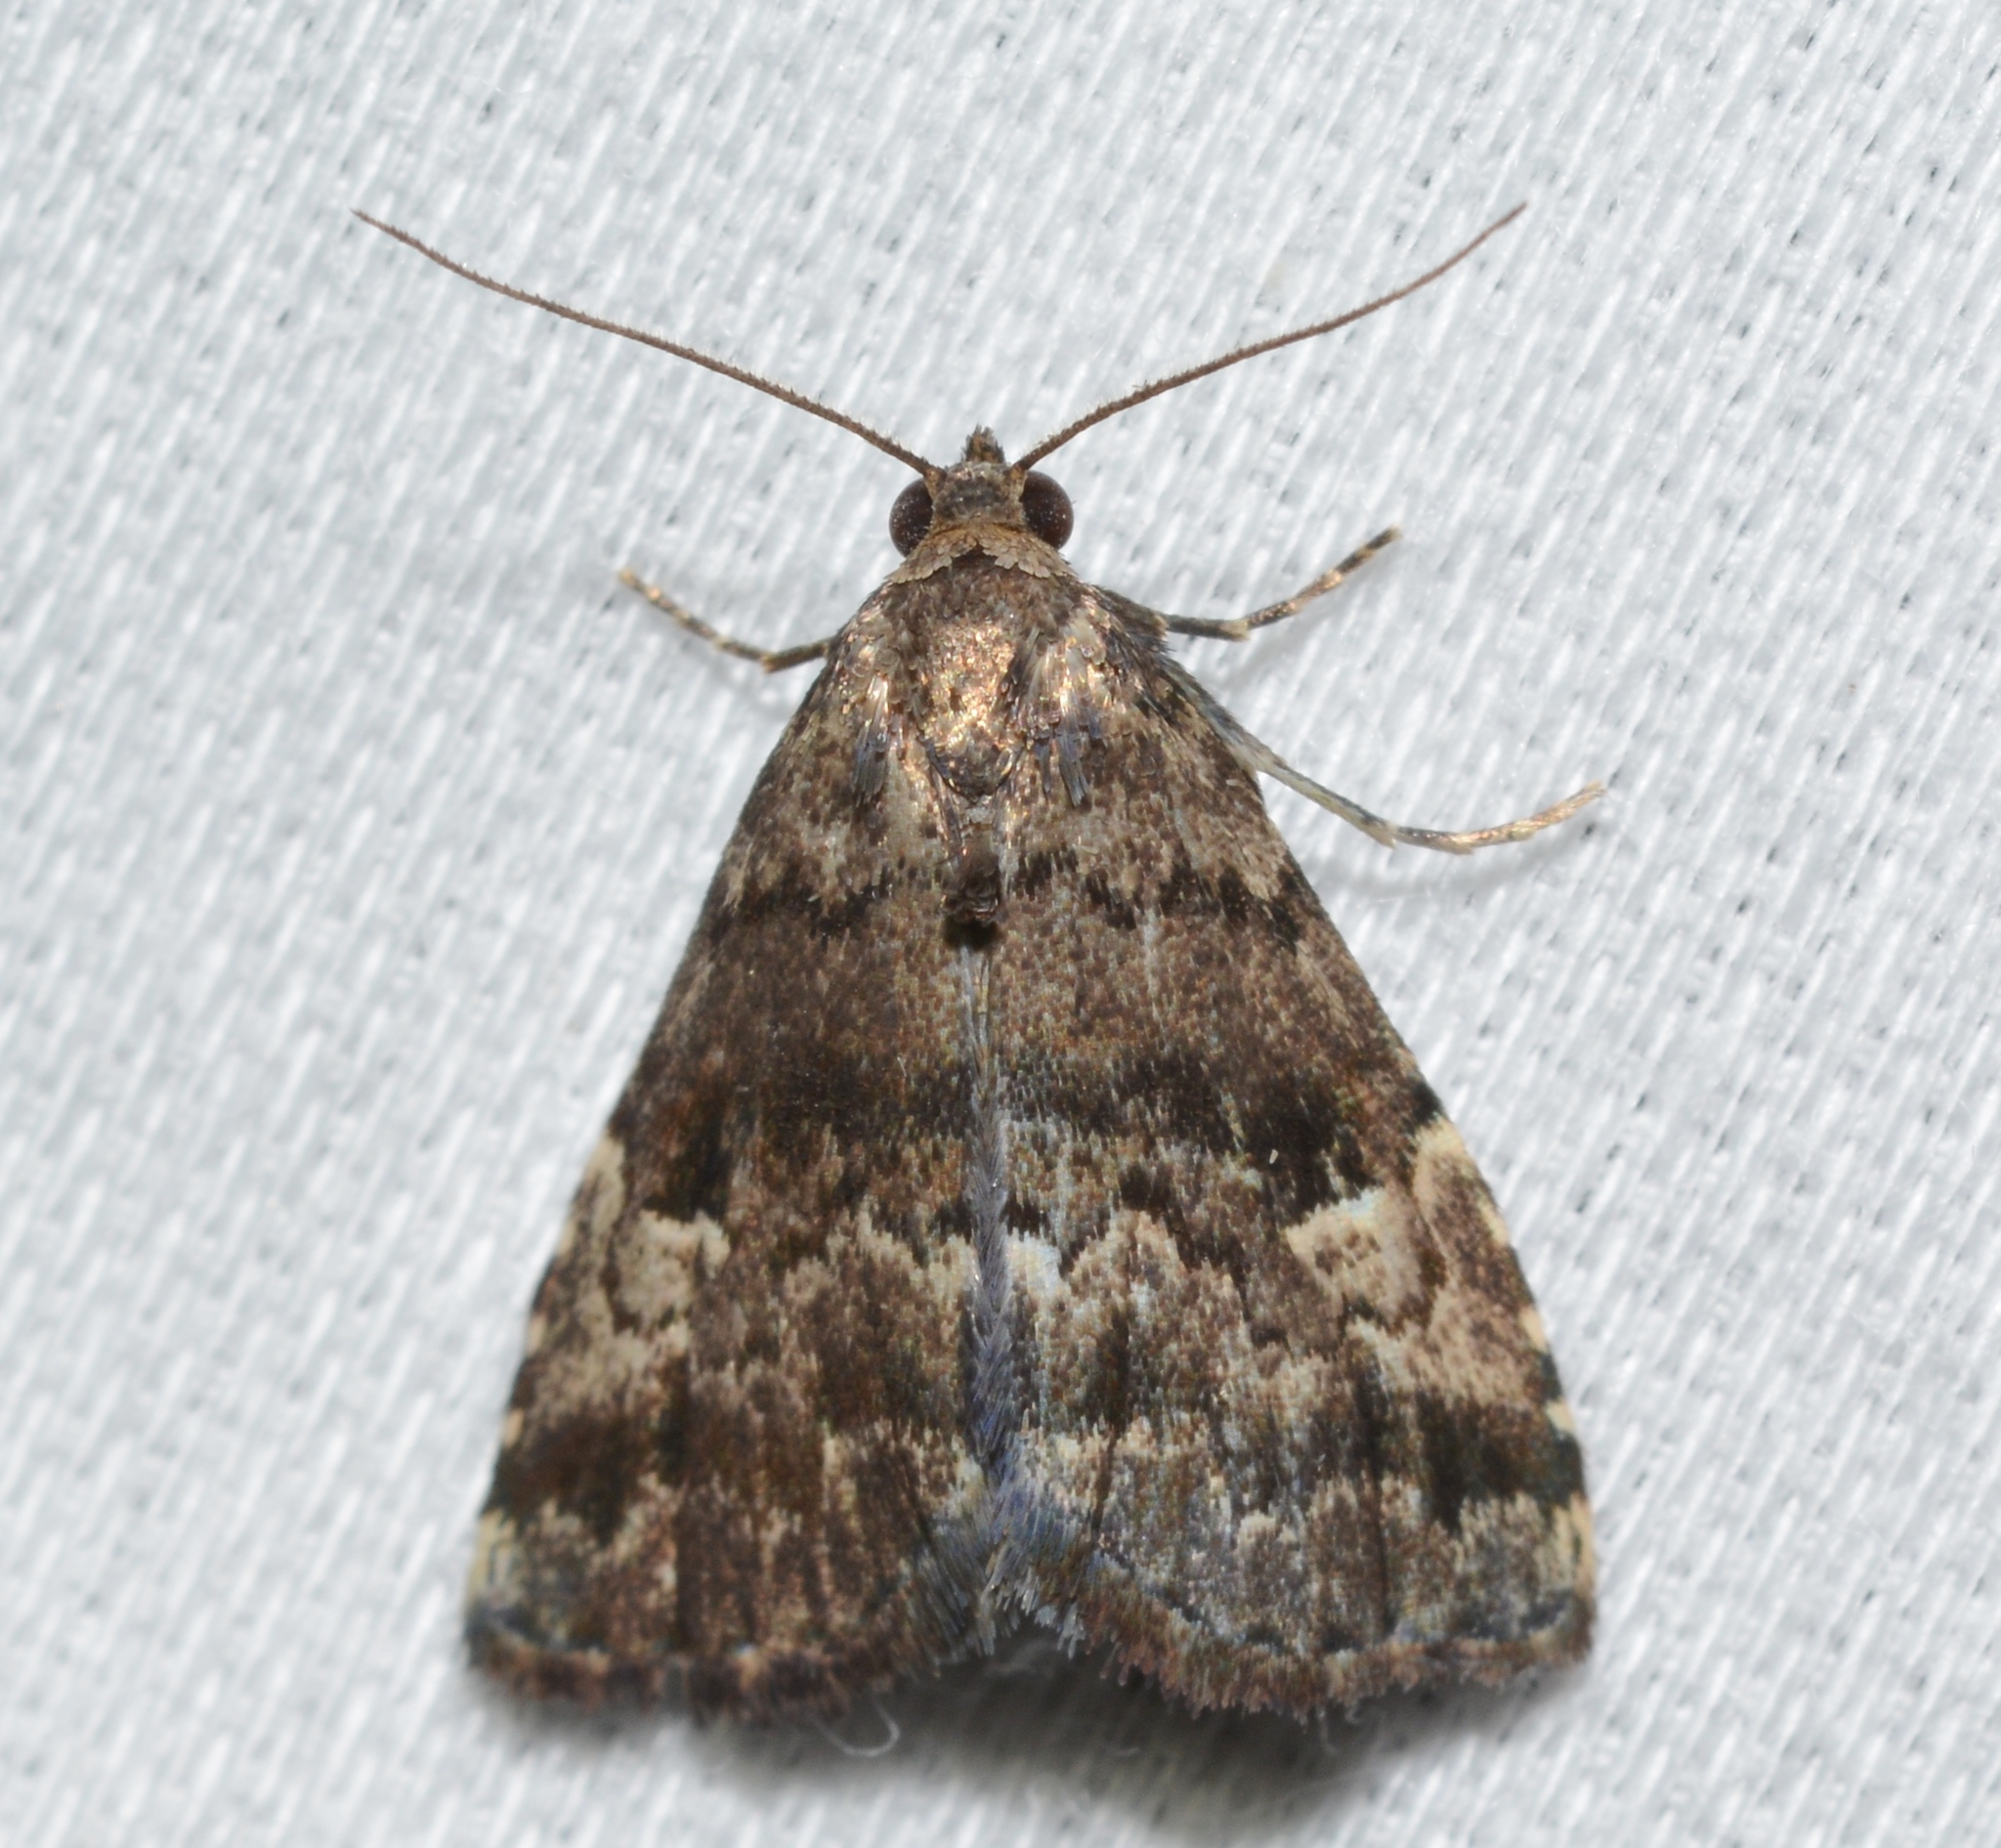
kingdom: Animalia
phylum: Arthropoda
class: Insecta
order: Lepidoptera
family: Erebidae
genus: Dyspyralis
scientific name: Dyspyralis nigellus
